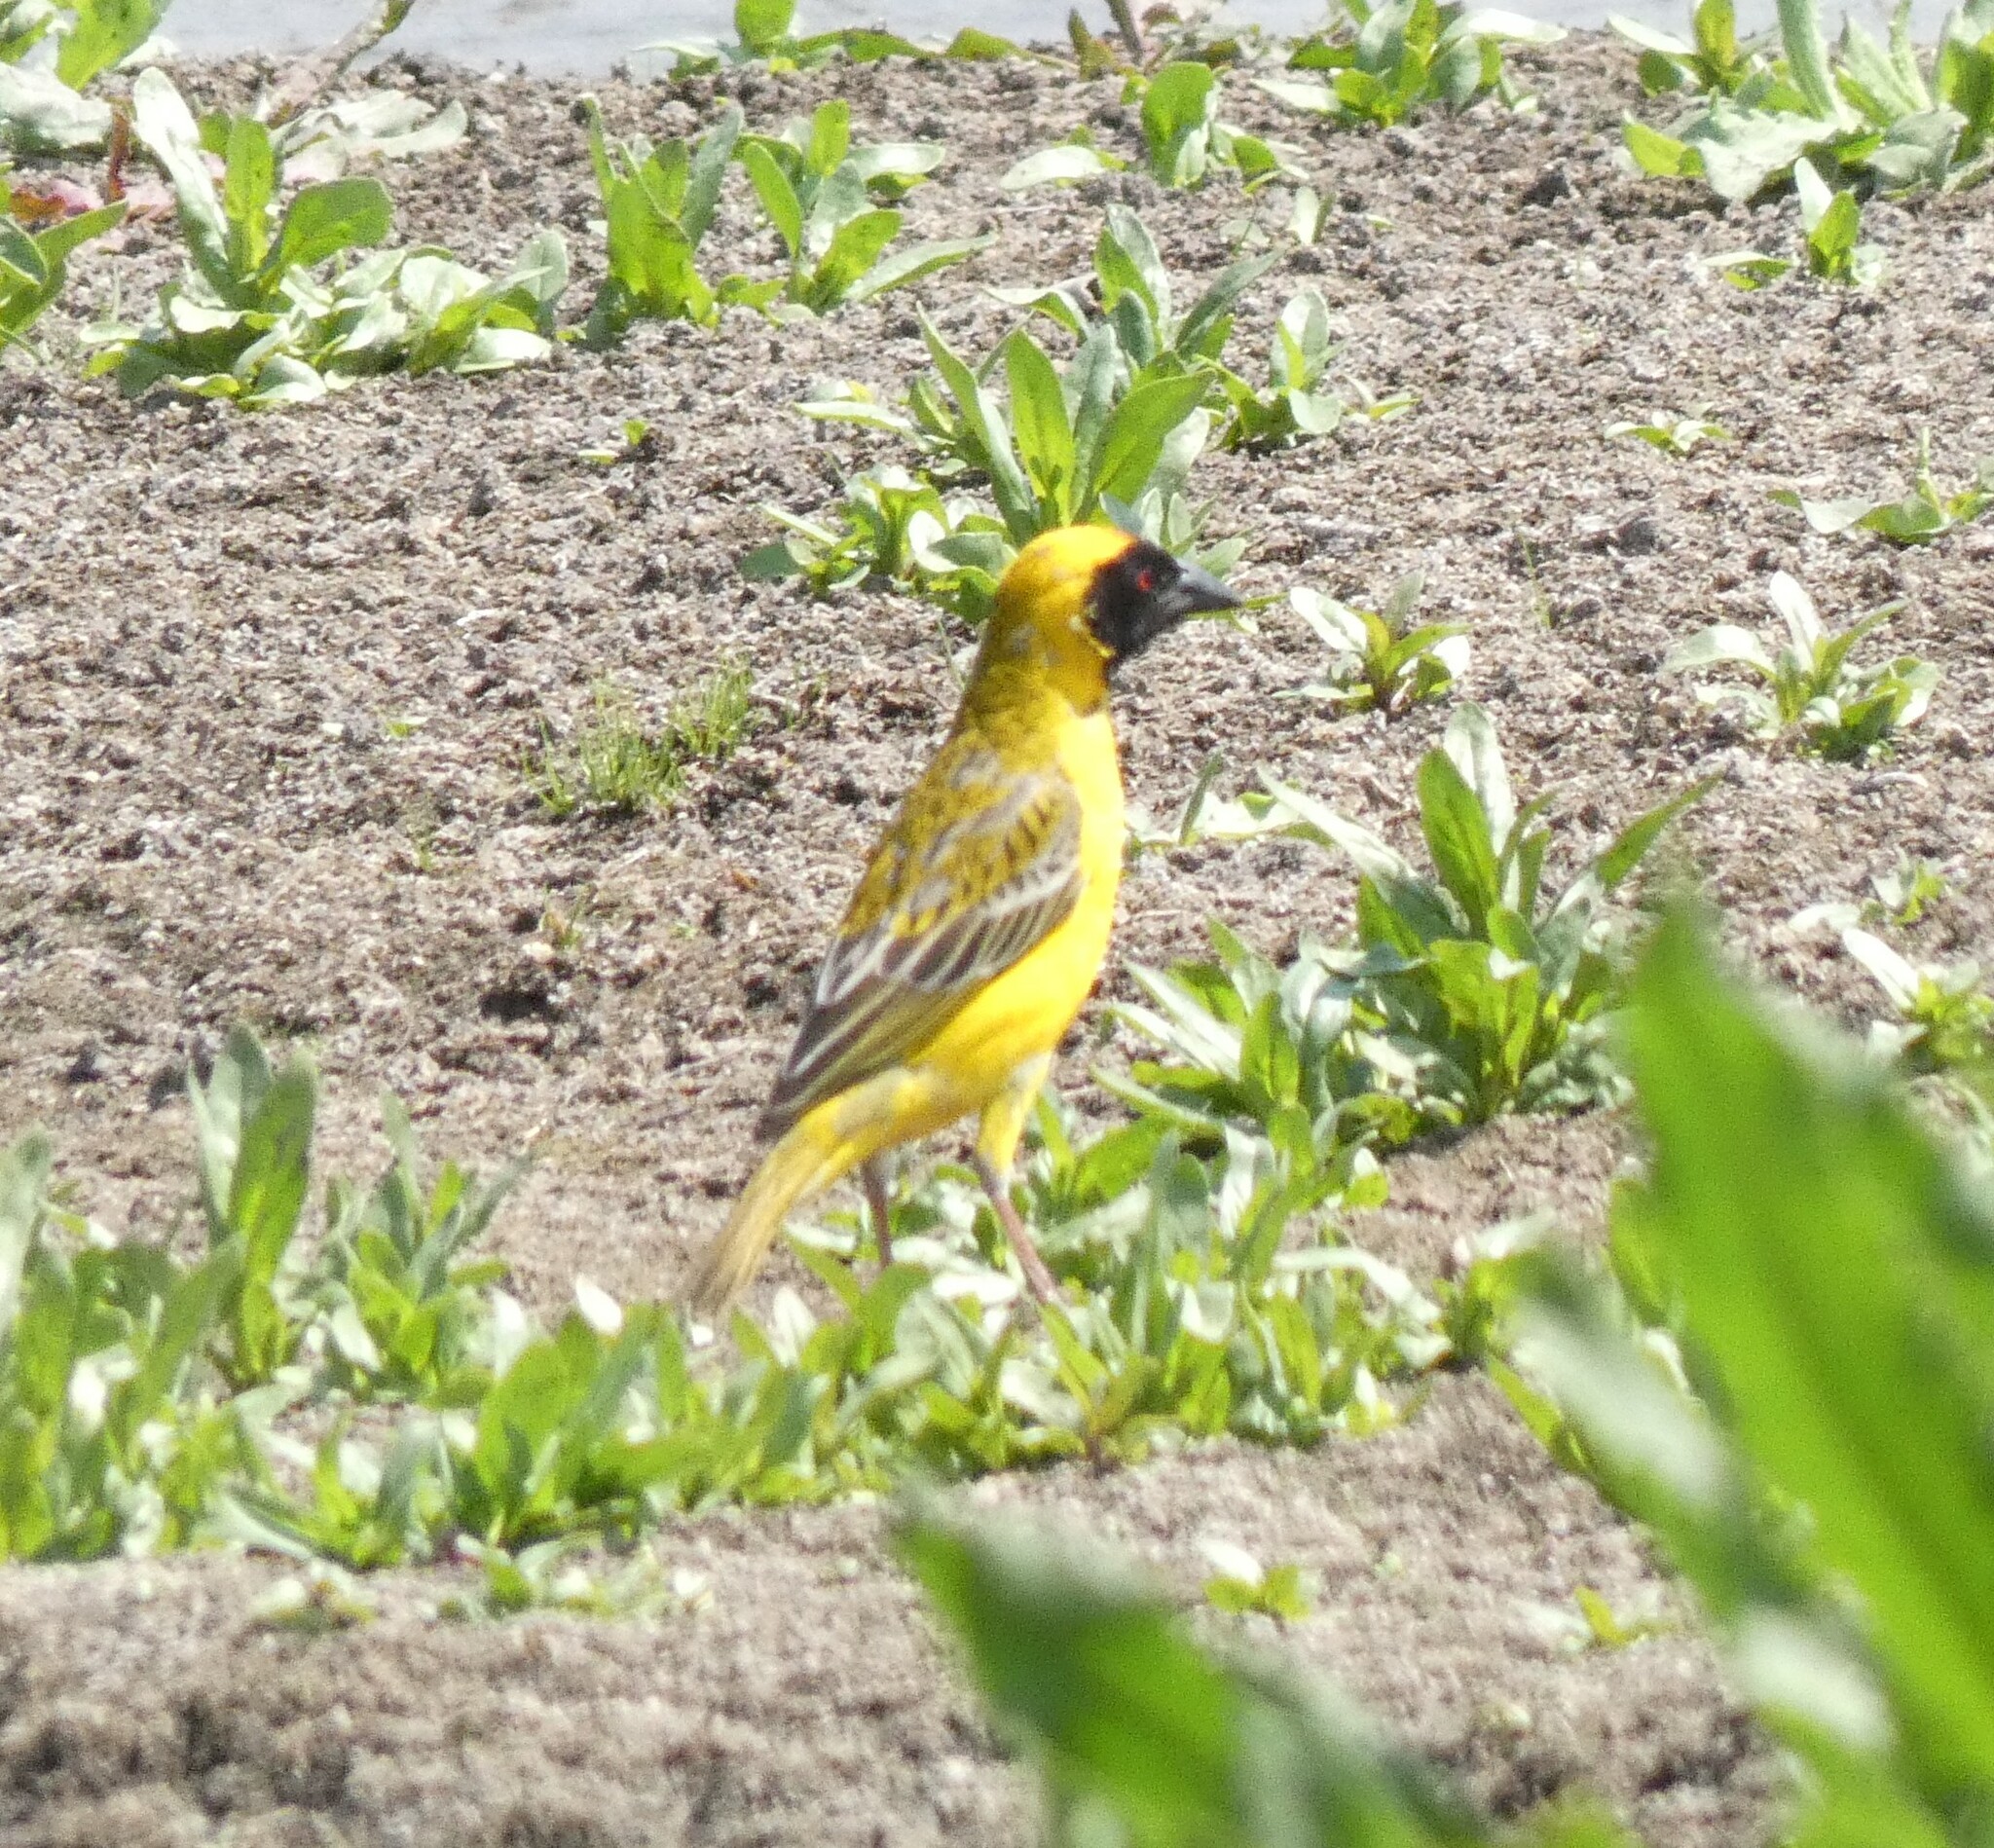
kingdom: Animalia
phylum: Chordata
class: Aves
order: Passeriformes
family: Ploceidae
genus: Ploceus
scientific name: Ploceus velatus
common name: Southern masked weaver
